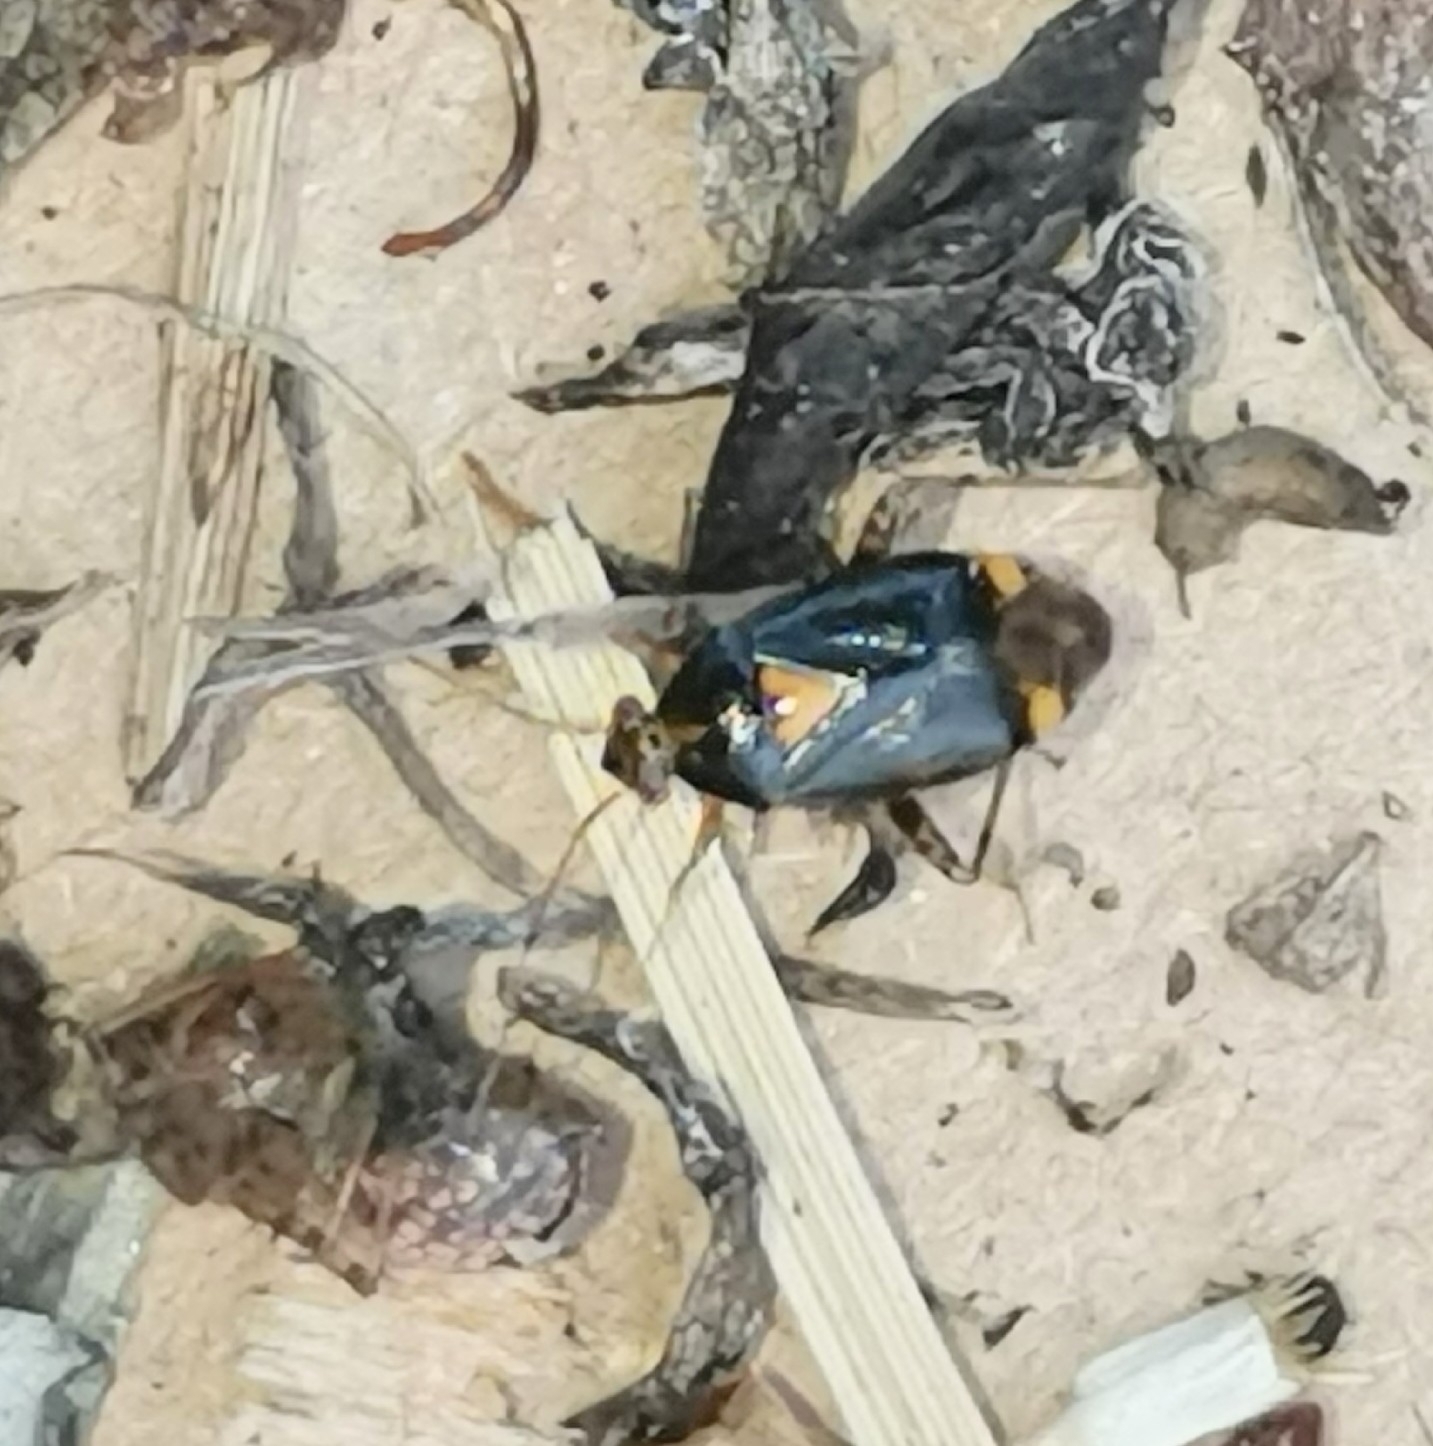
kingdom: Animalia
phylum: Arthropoda
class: Insecta
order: Hemiptera
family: Miridae
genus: Liocoris
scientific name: Liocoris tripustulatus
